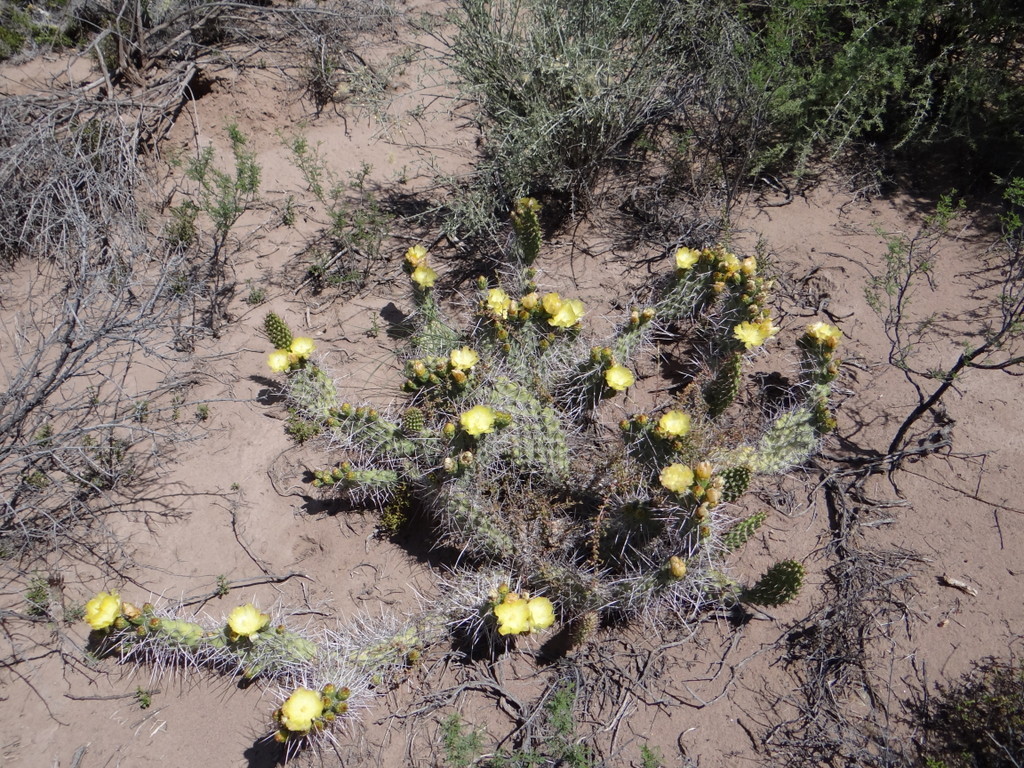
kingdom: Plantae
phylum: Tracheophyta
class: Magnoliopsida
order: Caryophyllales
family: Cactaceae
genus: Opuntia
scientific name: Opuntia sulphurea
